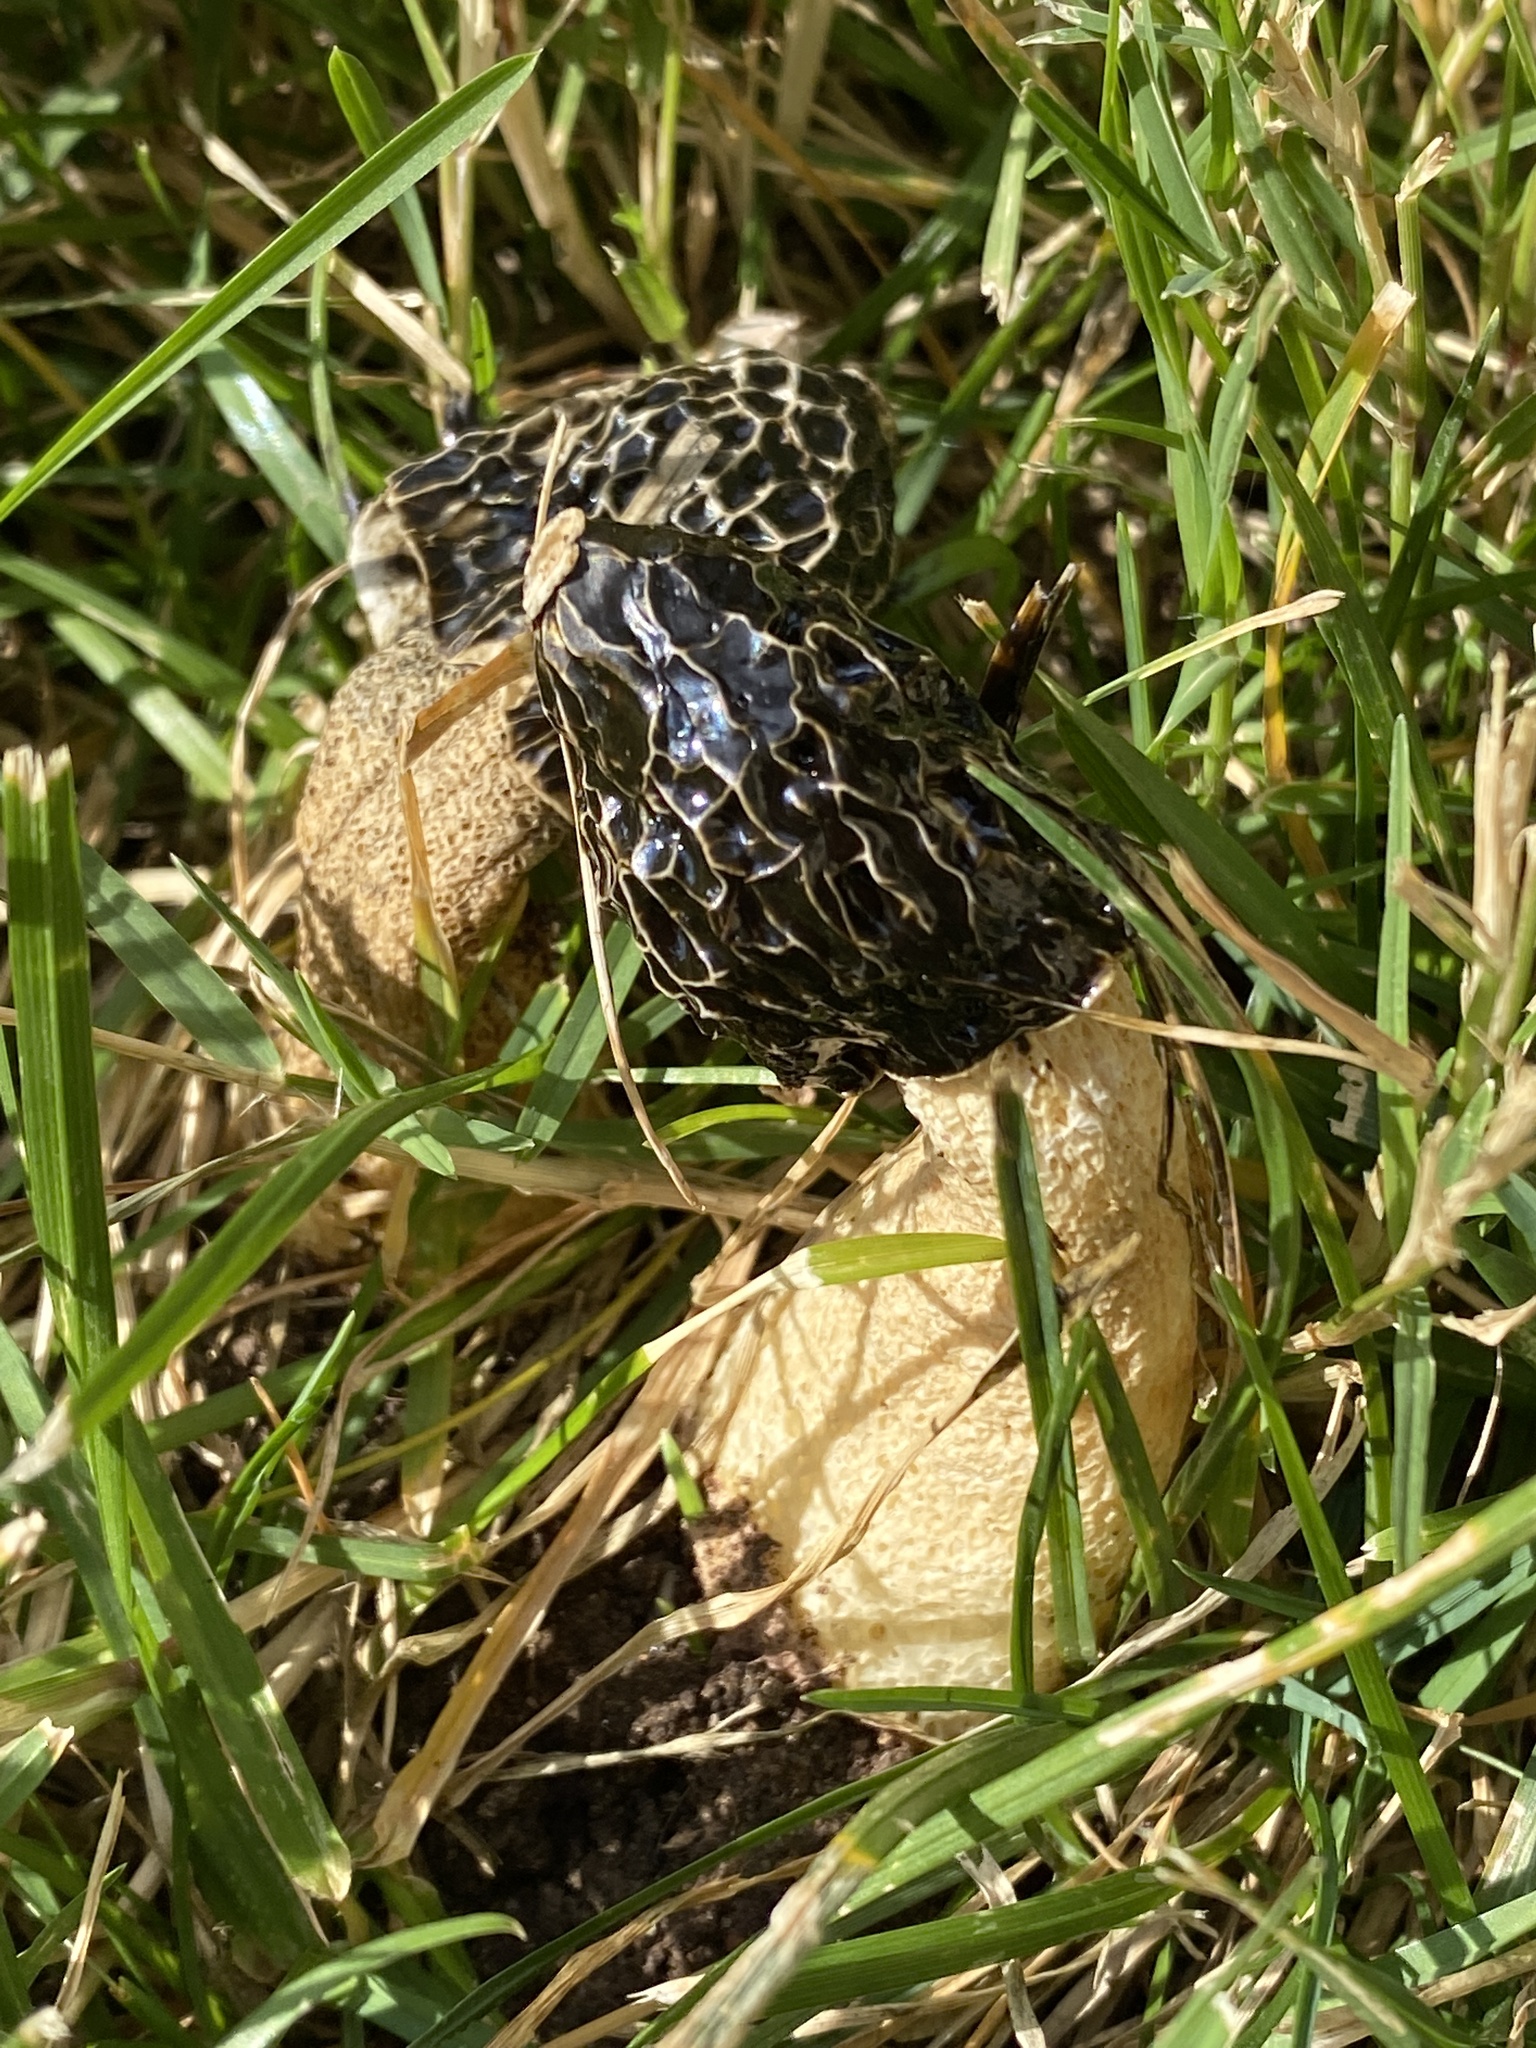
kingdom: Fungi
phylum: Basidiomycota
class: Agaricomycetes
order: Phallales
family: Phallaceae
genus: Phallus
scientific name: Phallus impudicus
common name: Common stinkhorn
